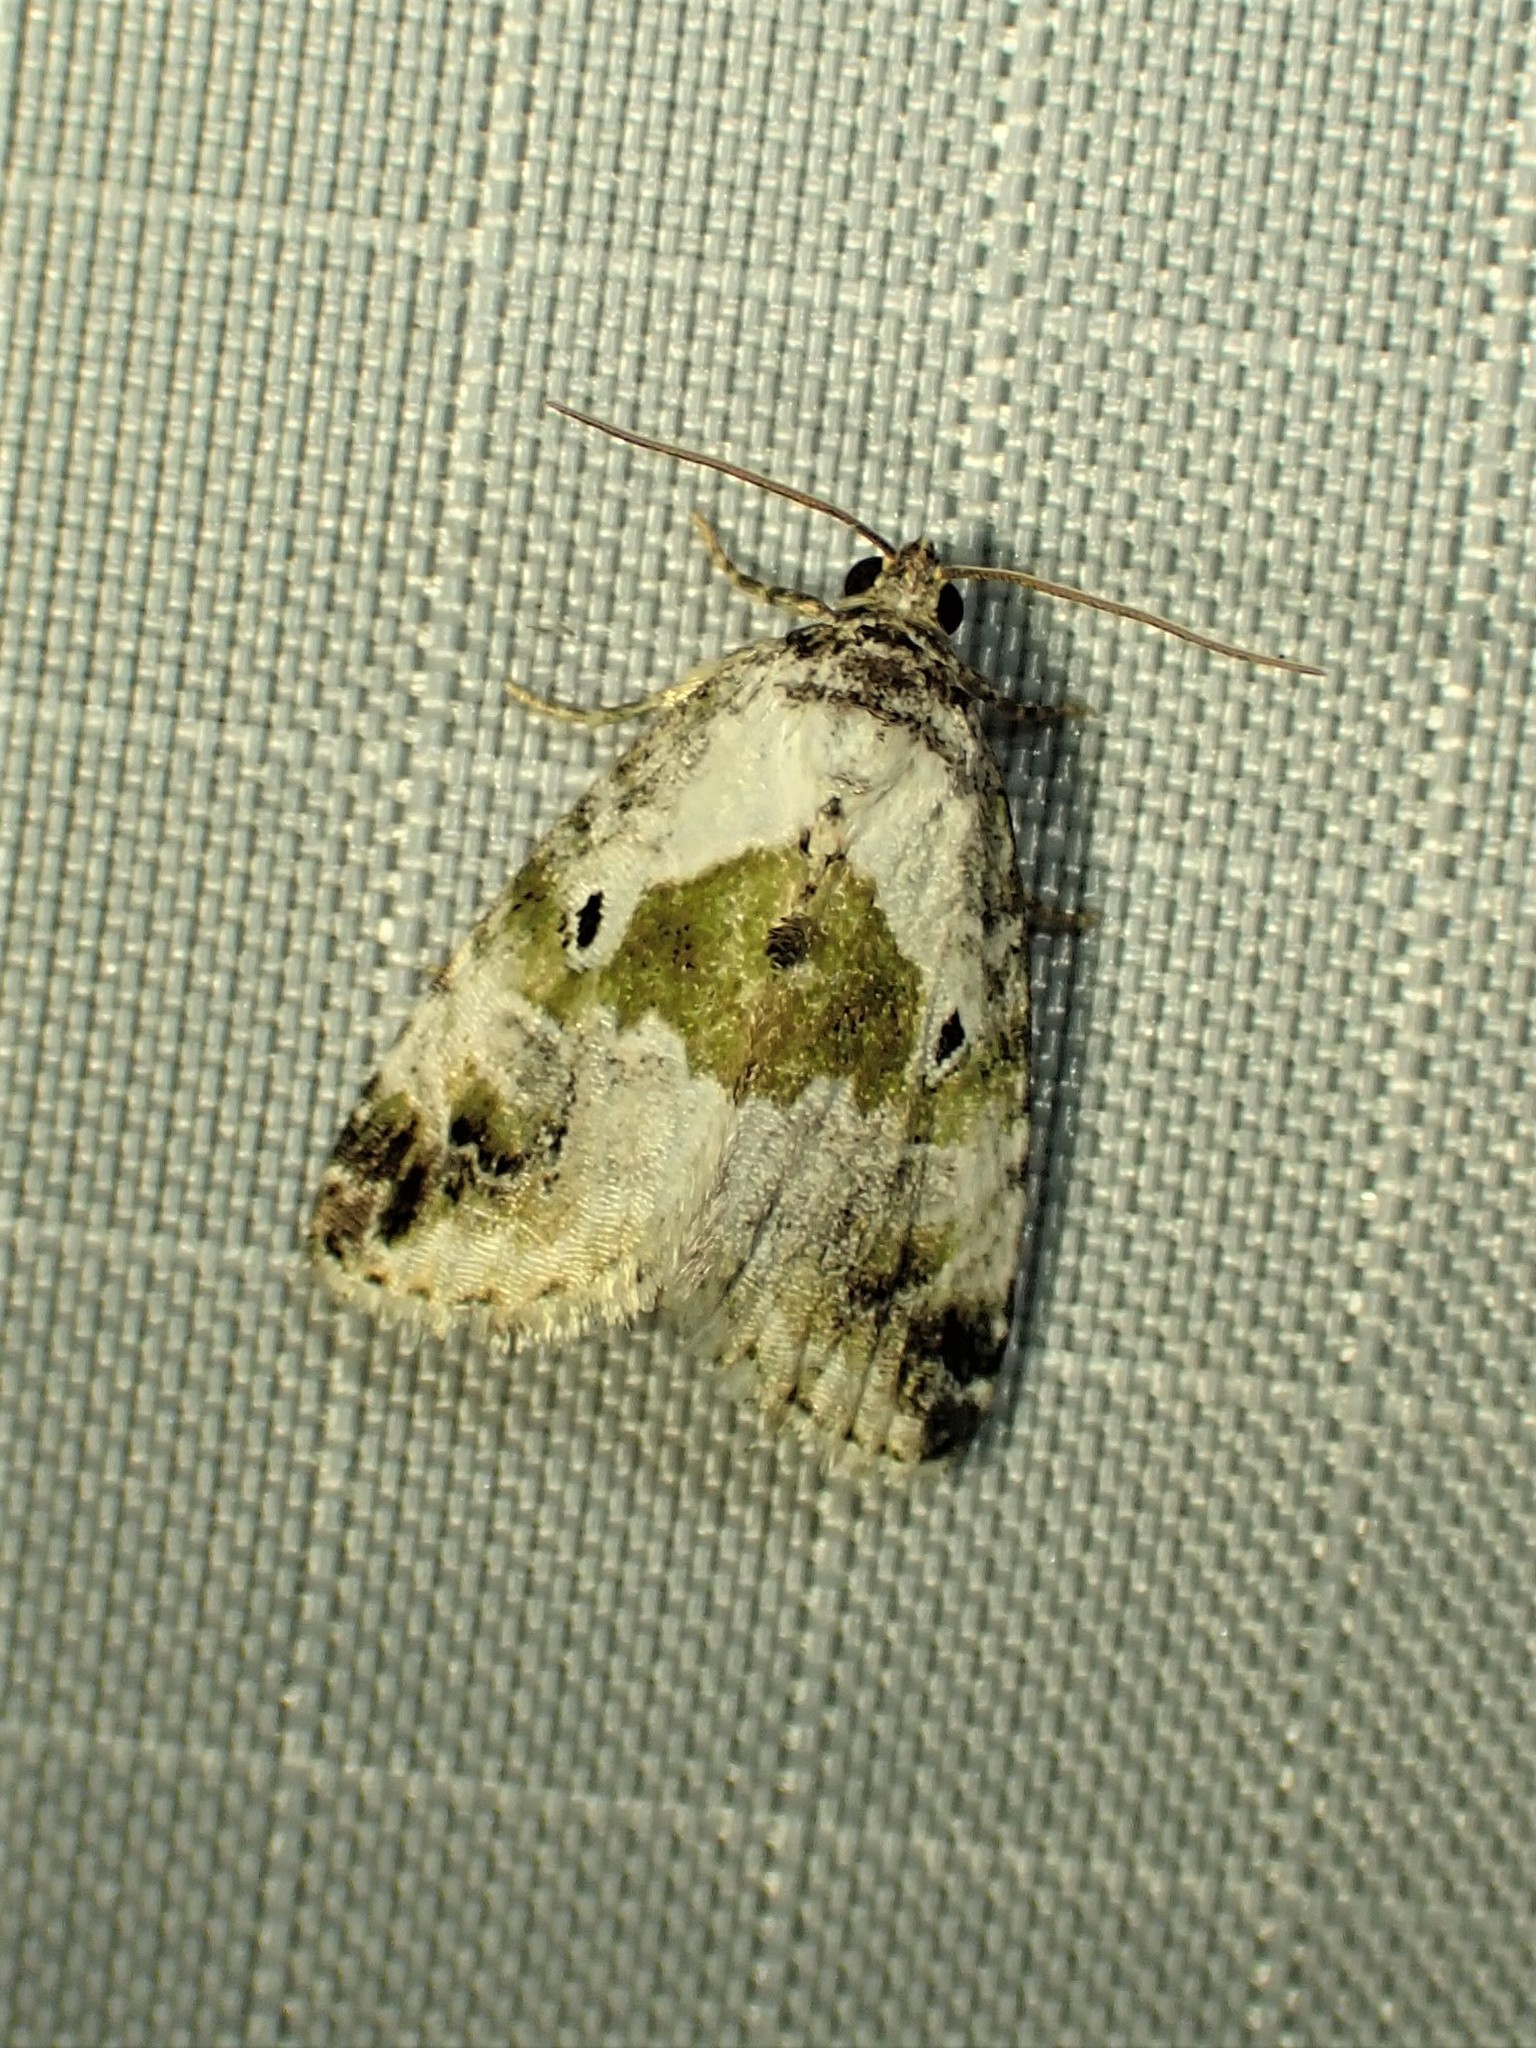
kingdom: Animalia
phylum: Arthropoda
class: Insecta
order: Lepidoptera
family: Noctuidae
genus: Maliattha
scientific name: Maliattha synochitis
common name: Black-dotted glyph
